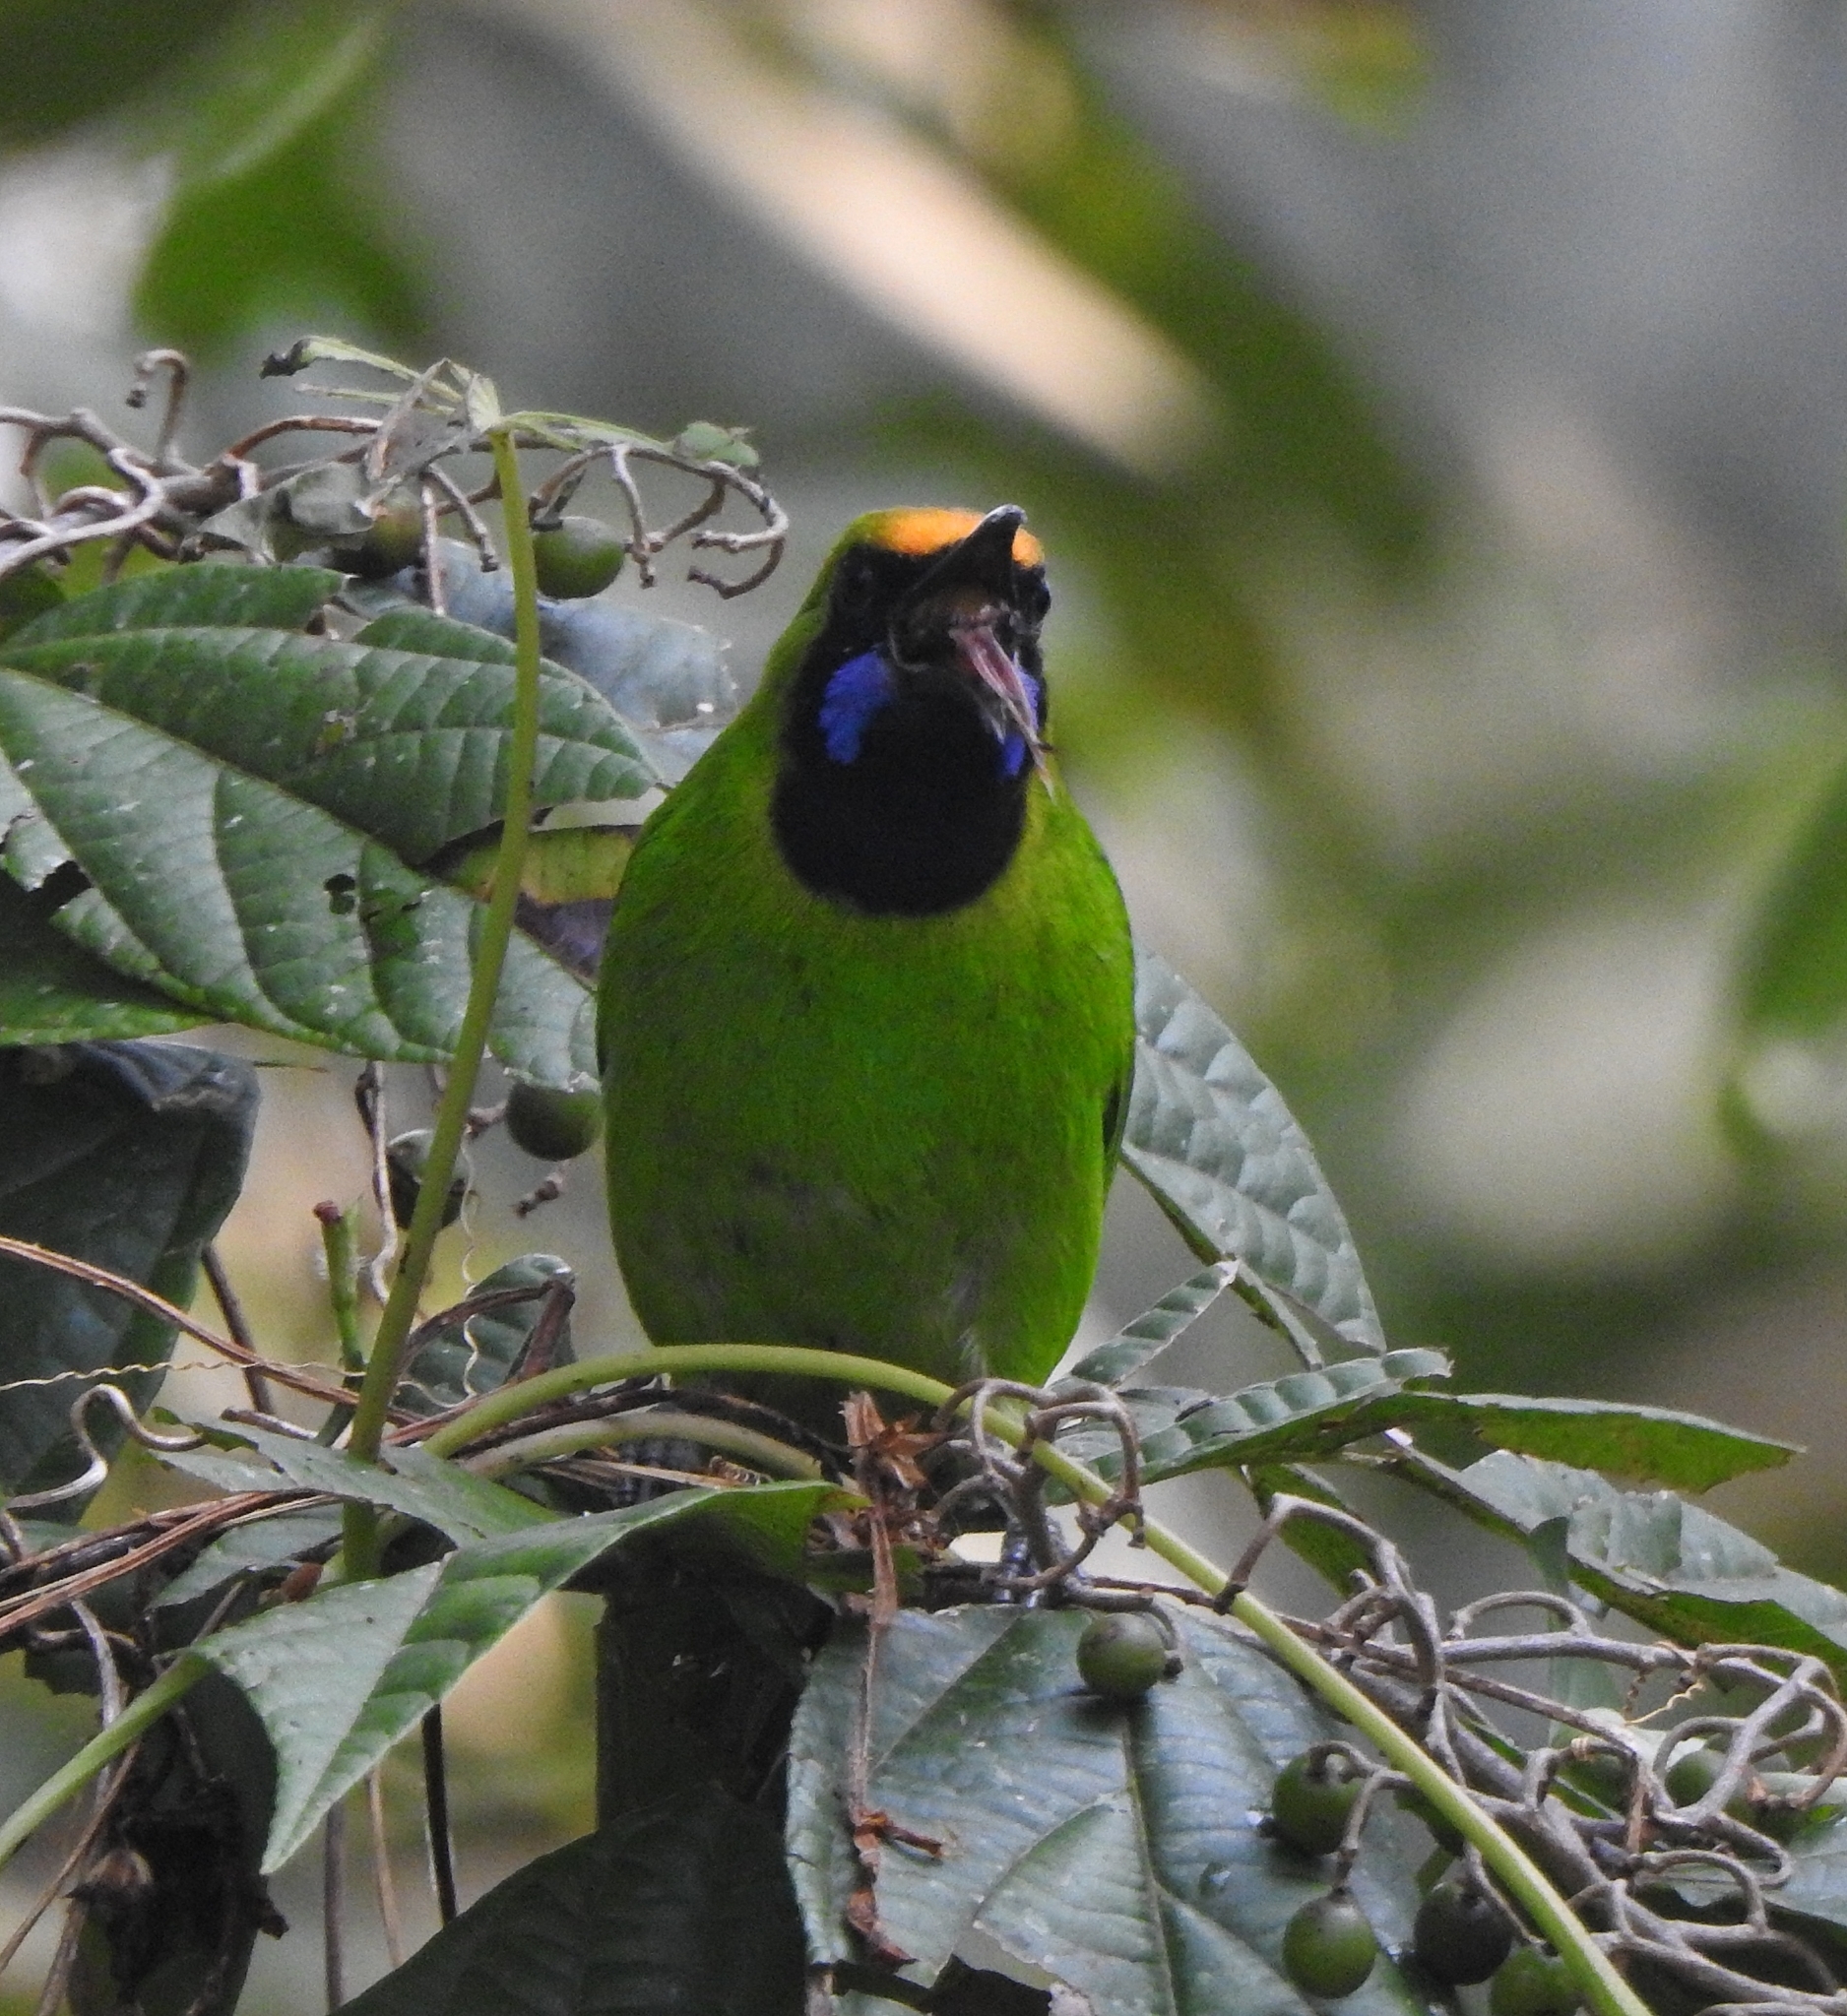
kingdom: Animalia
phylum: Chordata
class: Aves
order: Passeriformes
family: Chloropseidae
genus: Chloropsis
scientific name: Chloropsis aurifrons
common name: Golden-fronted leafbird
